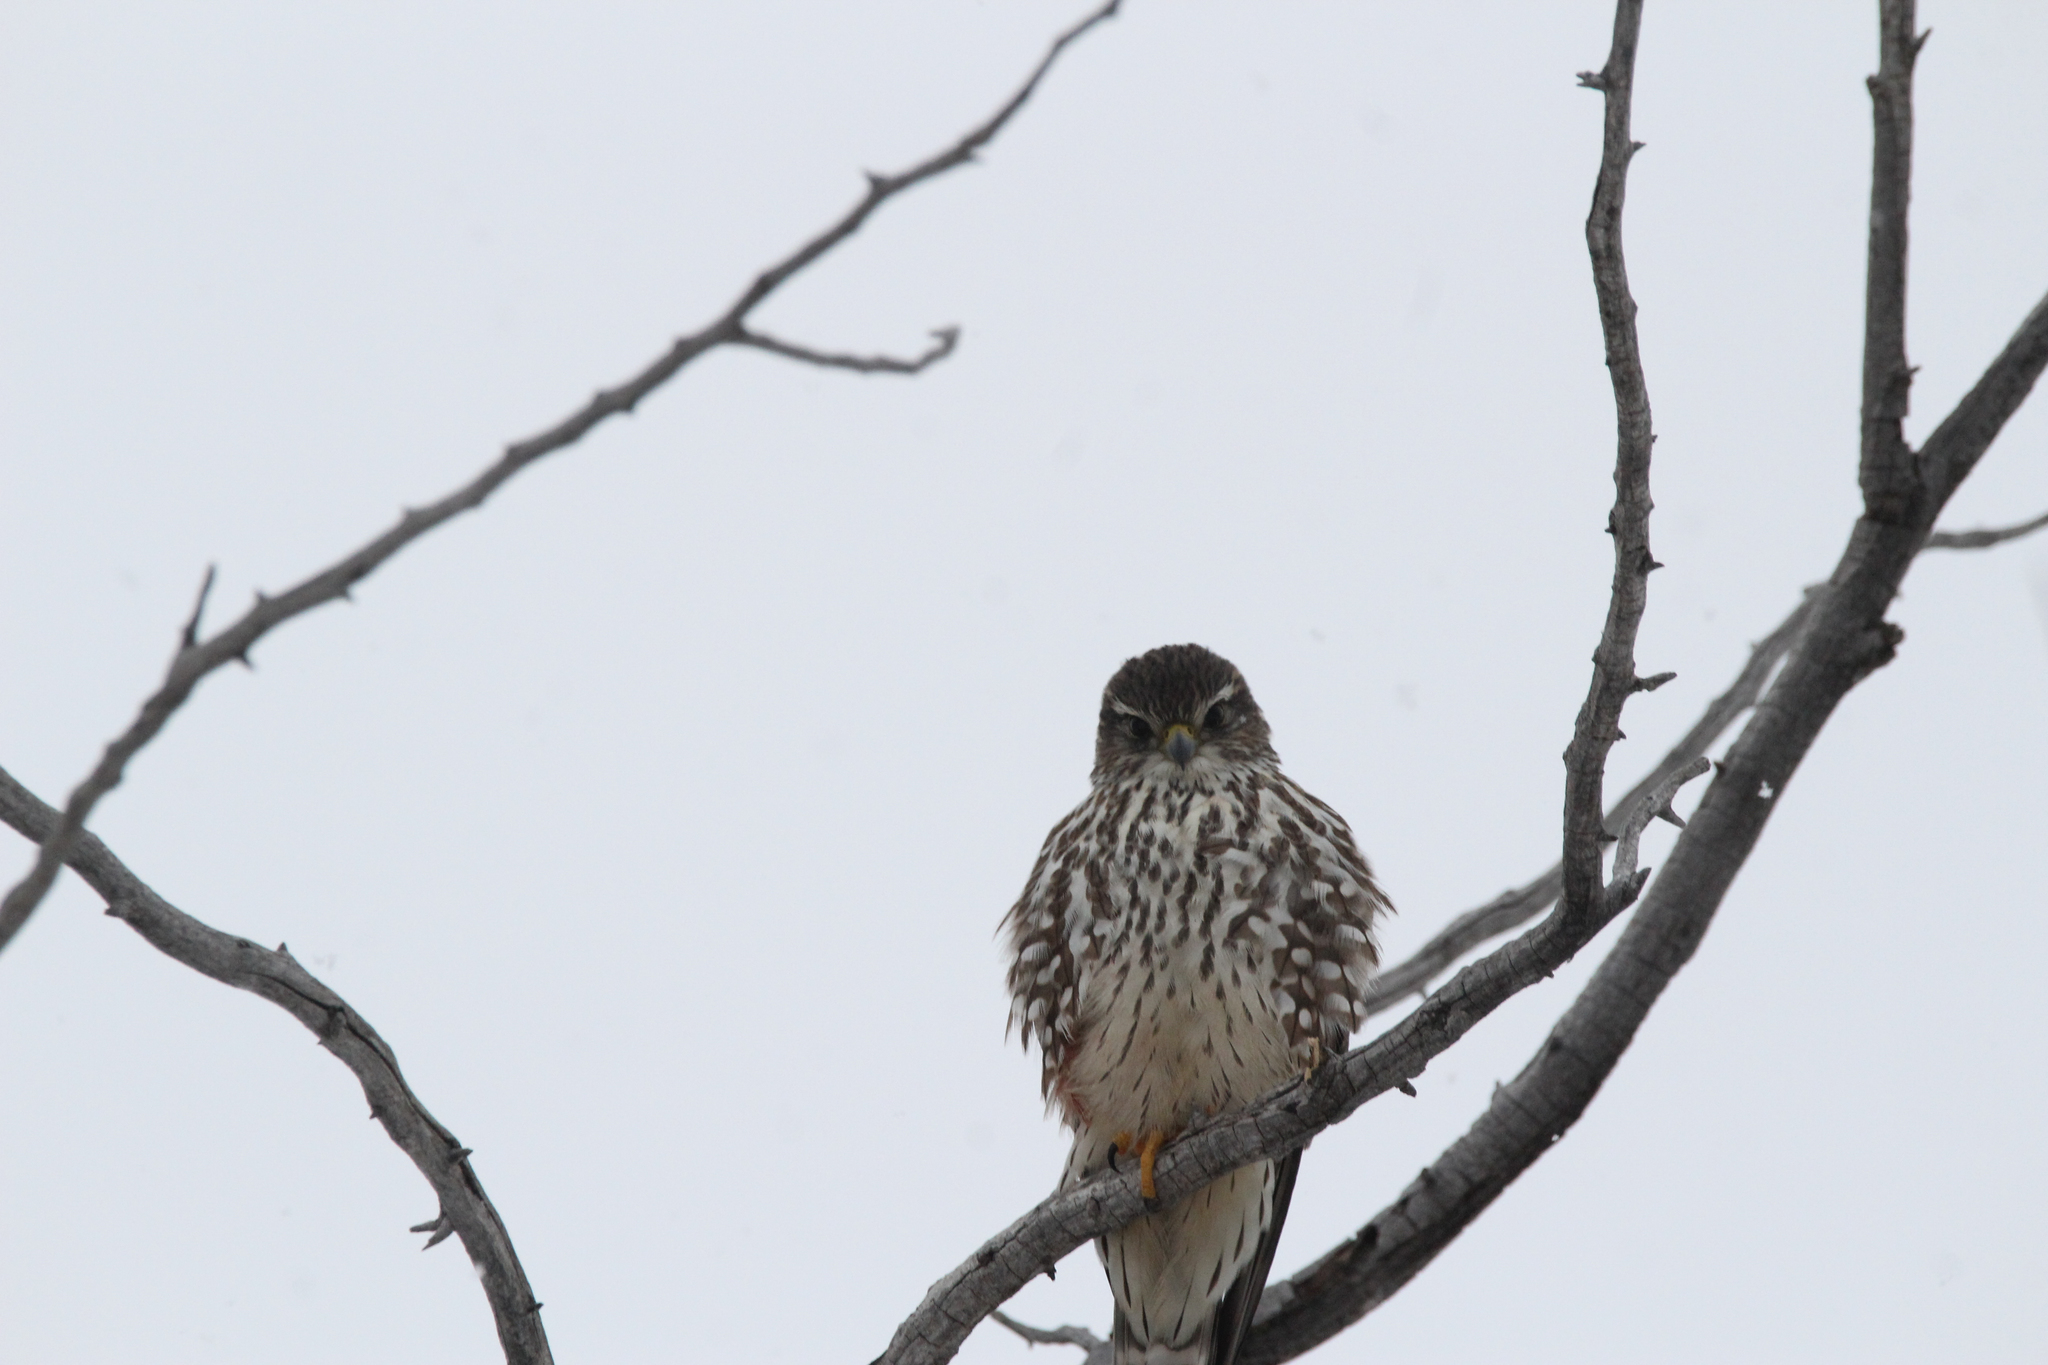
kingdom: Animalia
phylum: Chordata
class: Aves
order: Falconiformes
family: Falconidae
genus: Falco
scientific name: Falco columbarius
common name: Merlin
